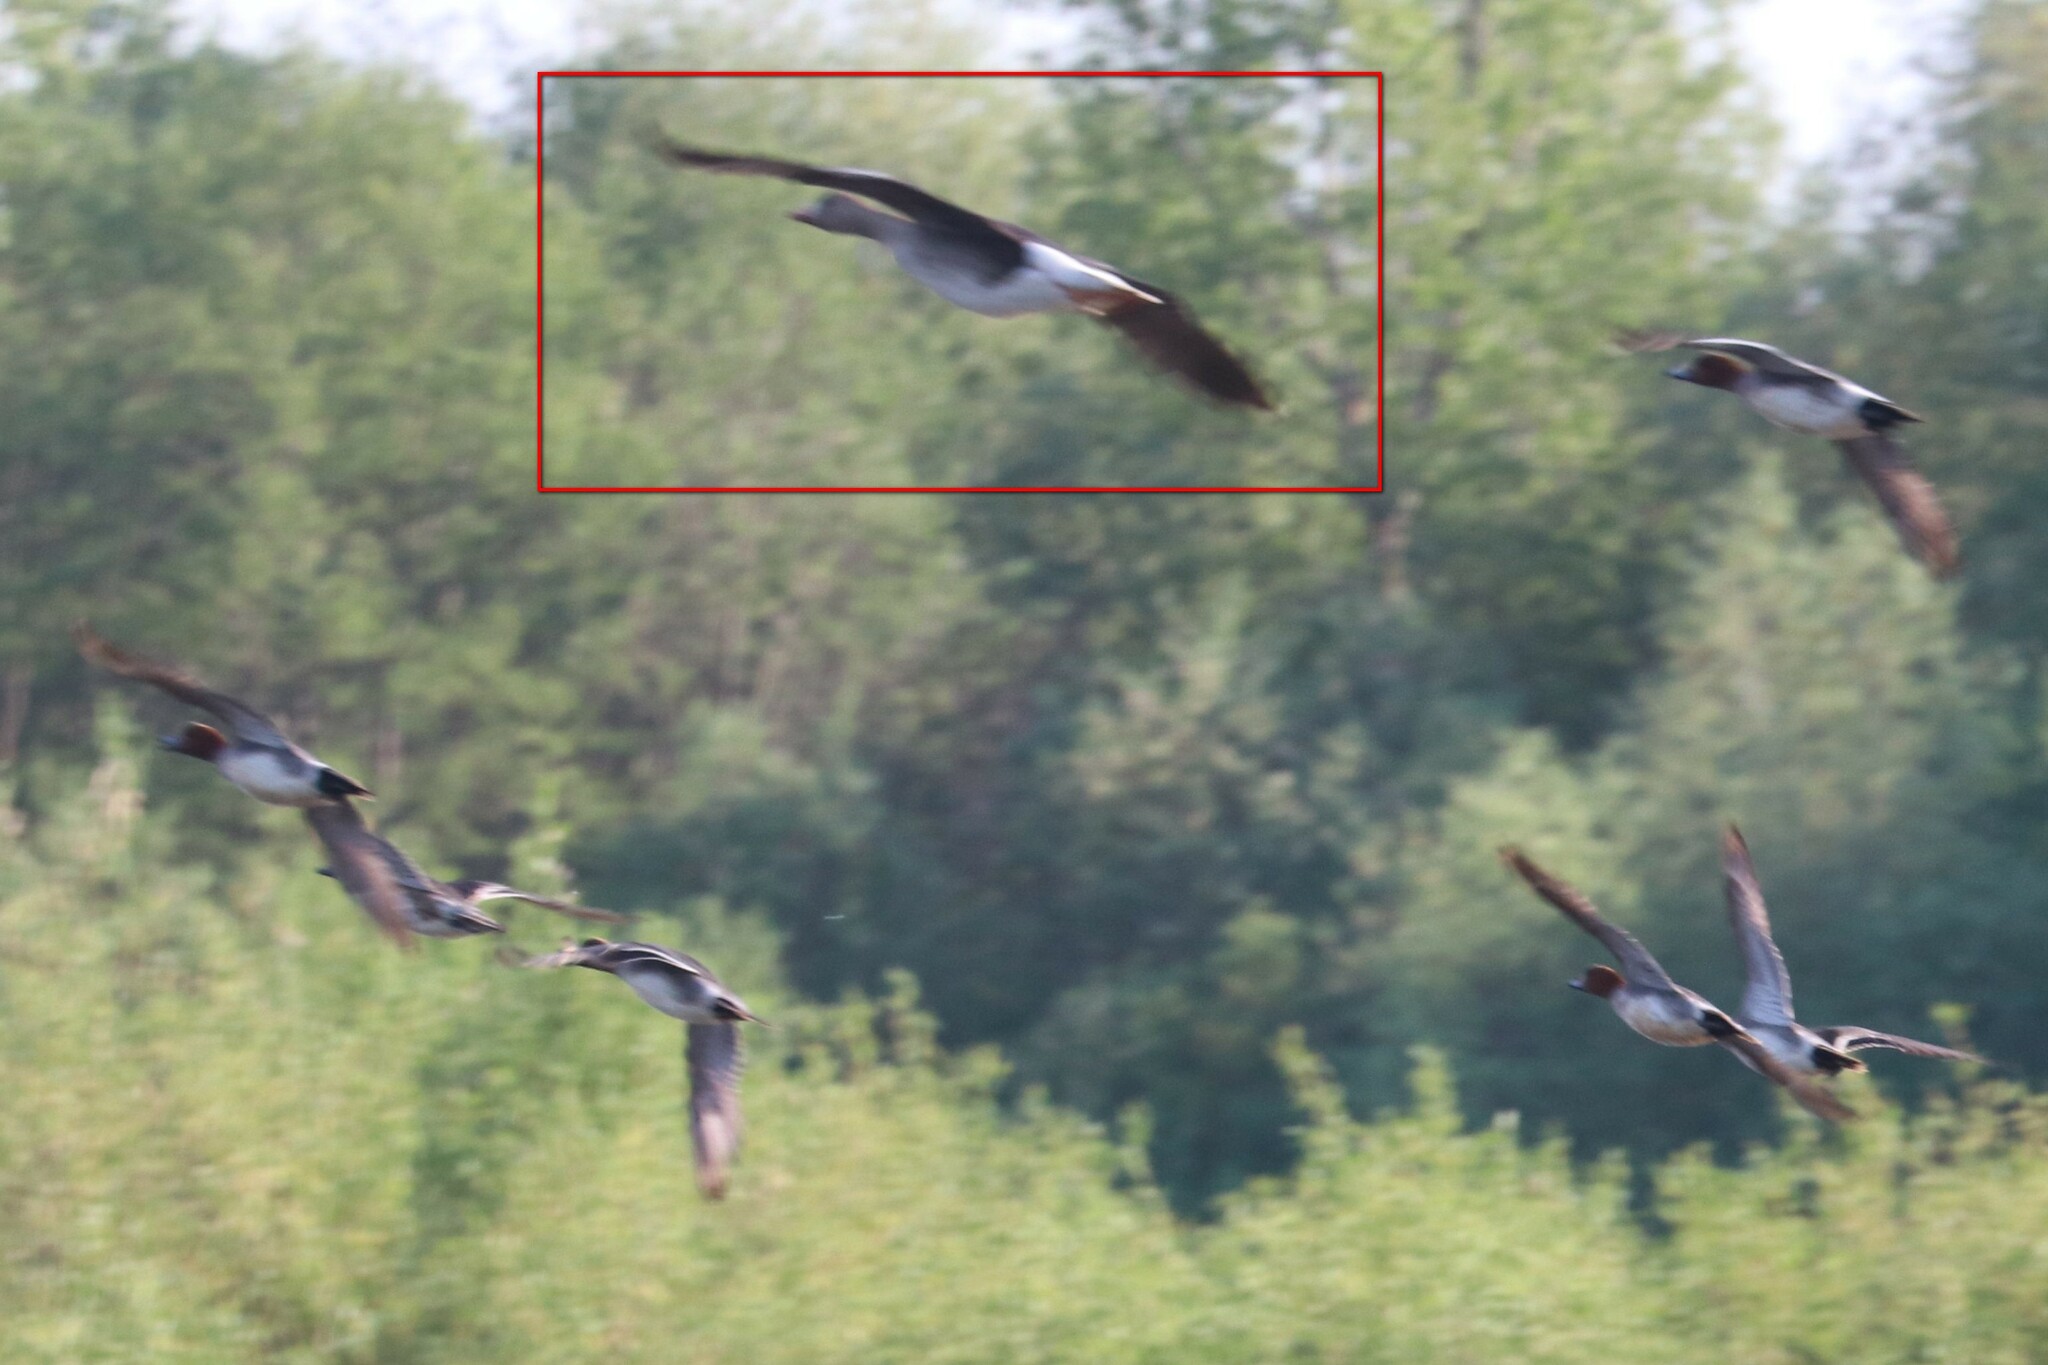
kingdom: Animalia
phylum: Chordata
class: Aves
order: Anseriformes
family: Anatidae
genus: Anser
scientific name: Anser albifrons
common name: Greater white-fronted goose
